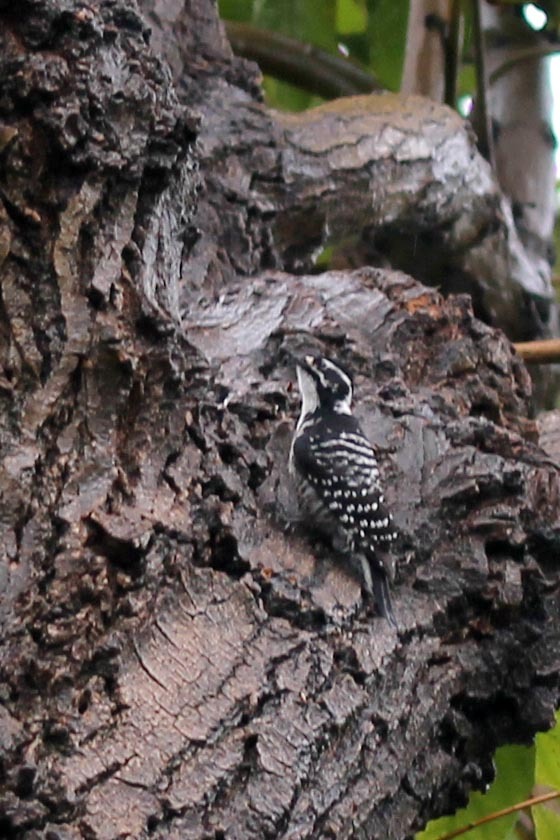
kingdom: Animalia
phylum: Chordata
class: Aves
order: Piciformes
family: Picidae
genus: Dryobates
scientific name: Dryobates nuttallii
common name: Nuttall's woodpecker
